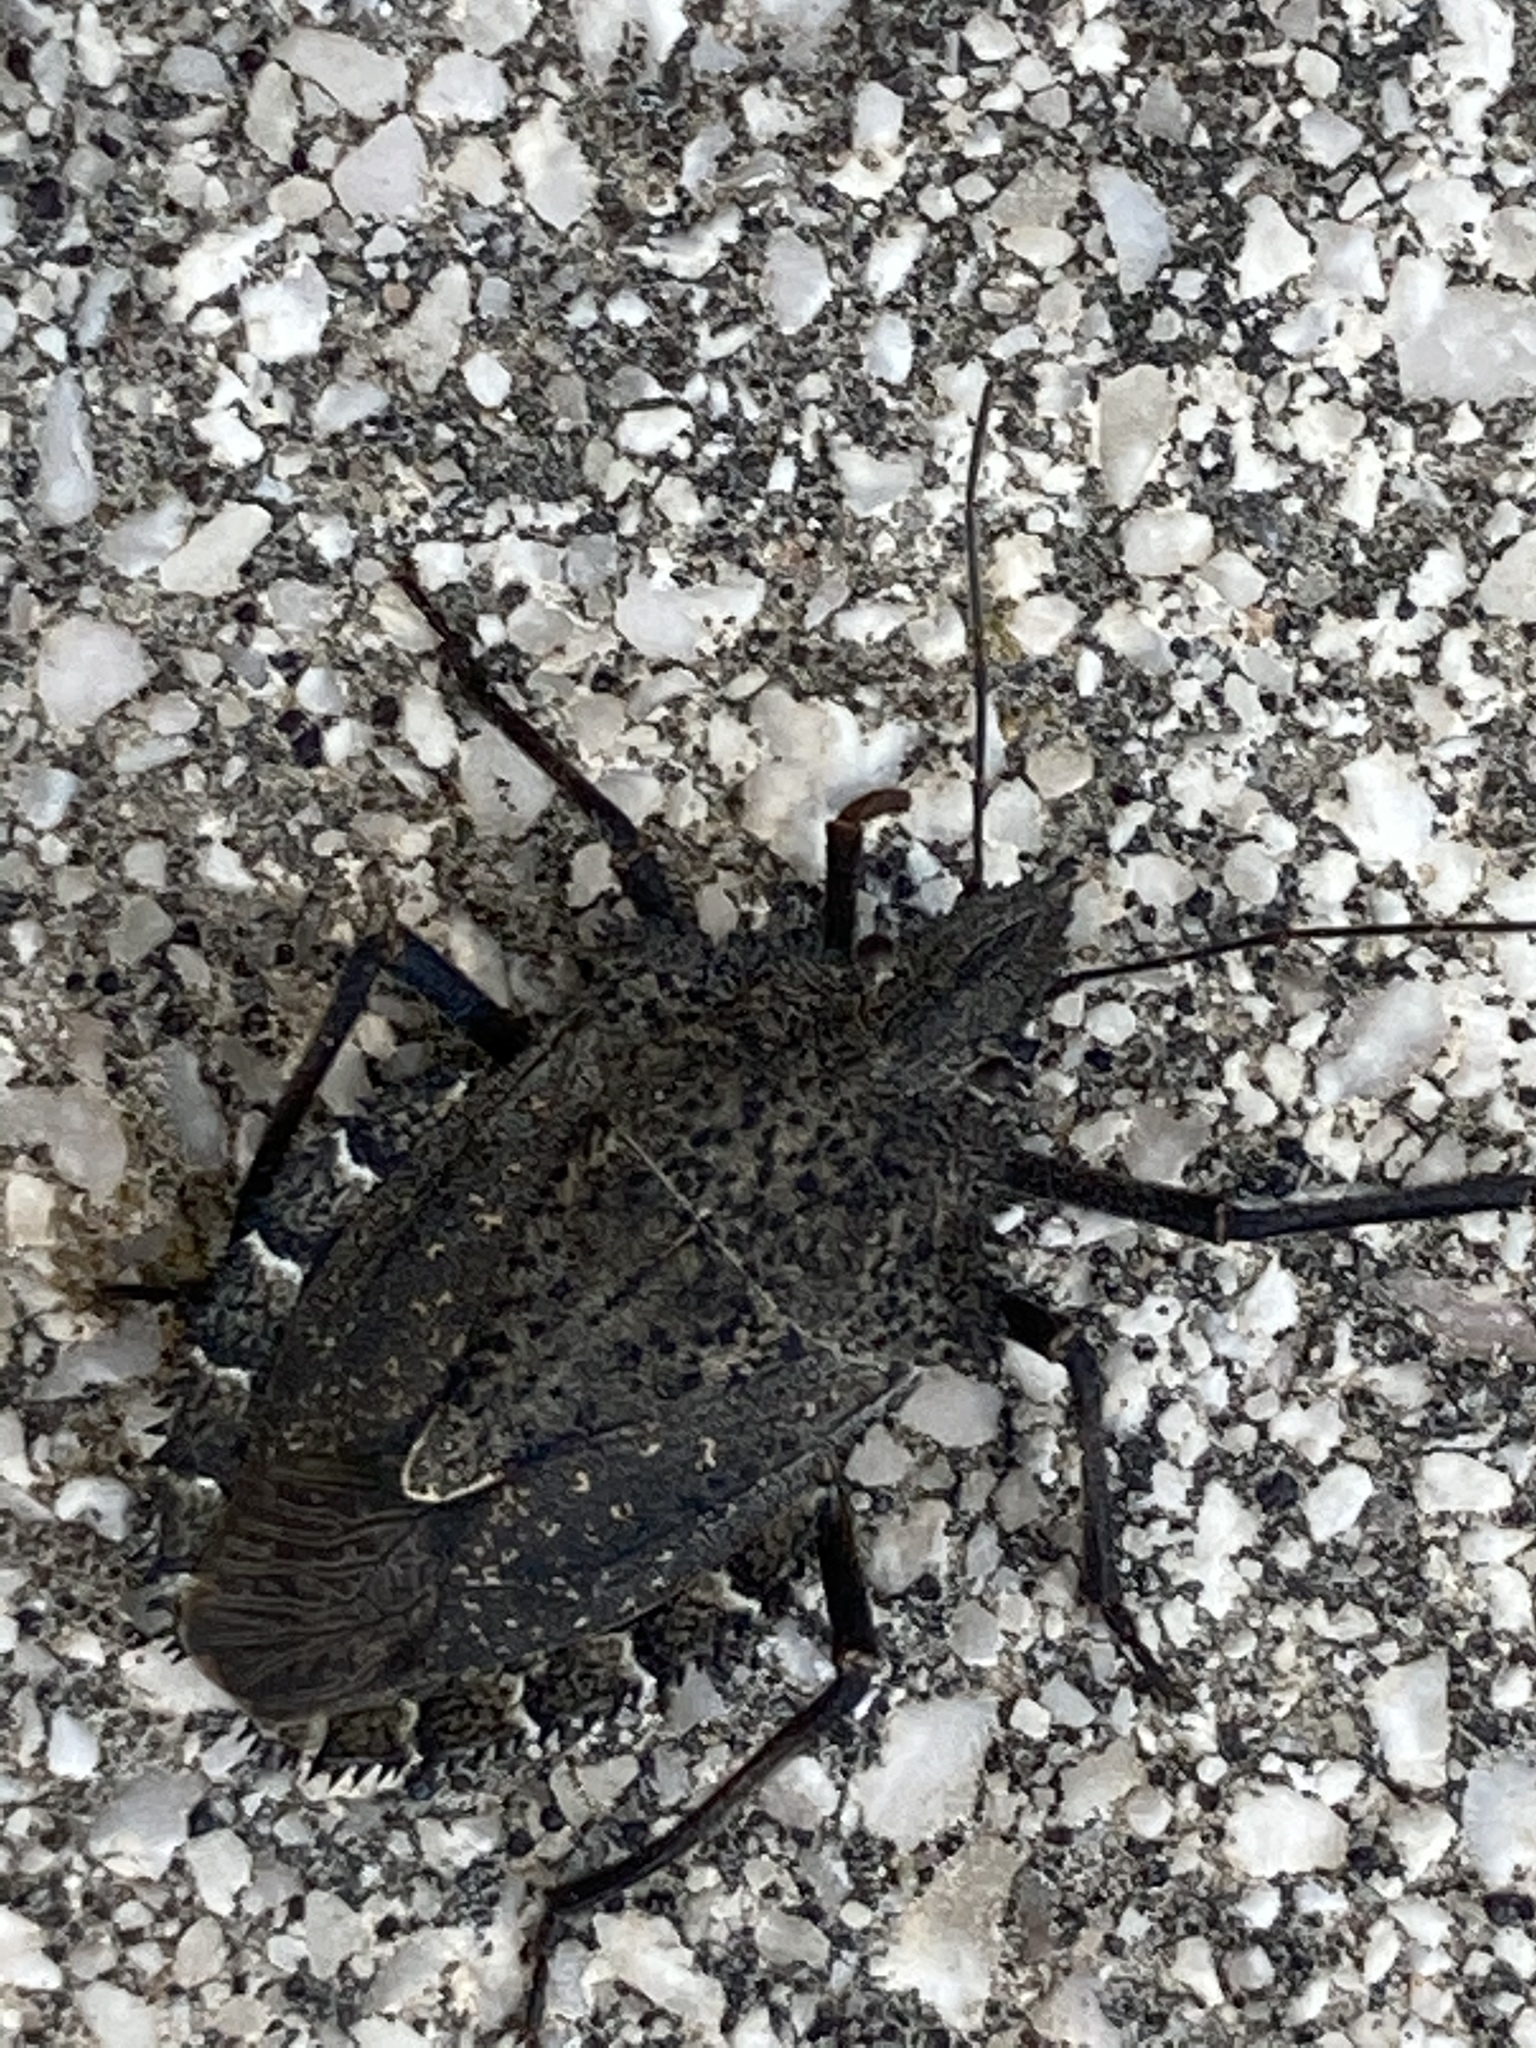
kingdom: Animalia
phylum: Arthropoda
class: Insecta
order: Hemiptera
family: Pentatomidae
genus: Mustha
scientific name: Mustha spinosula
